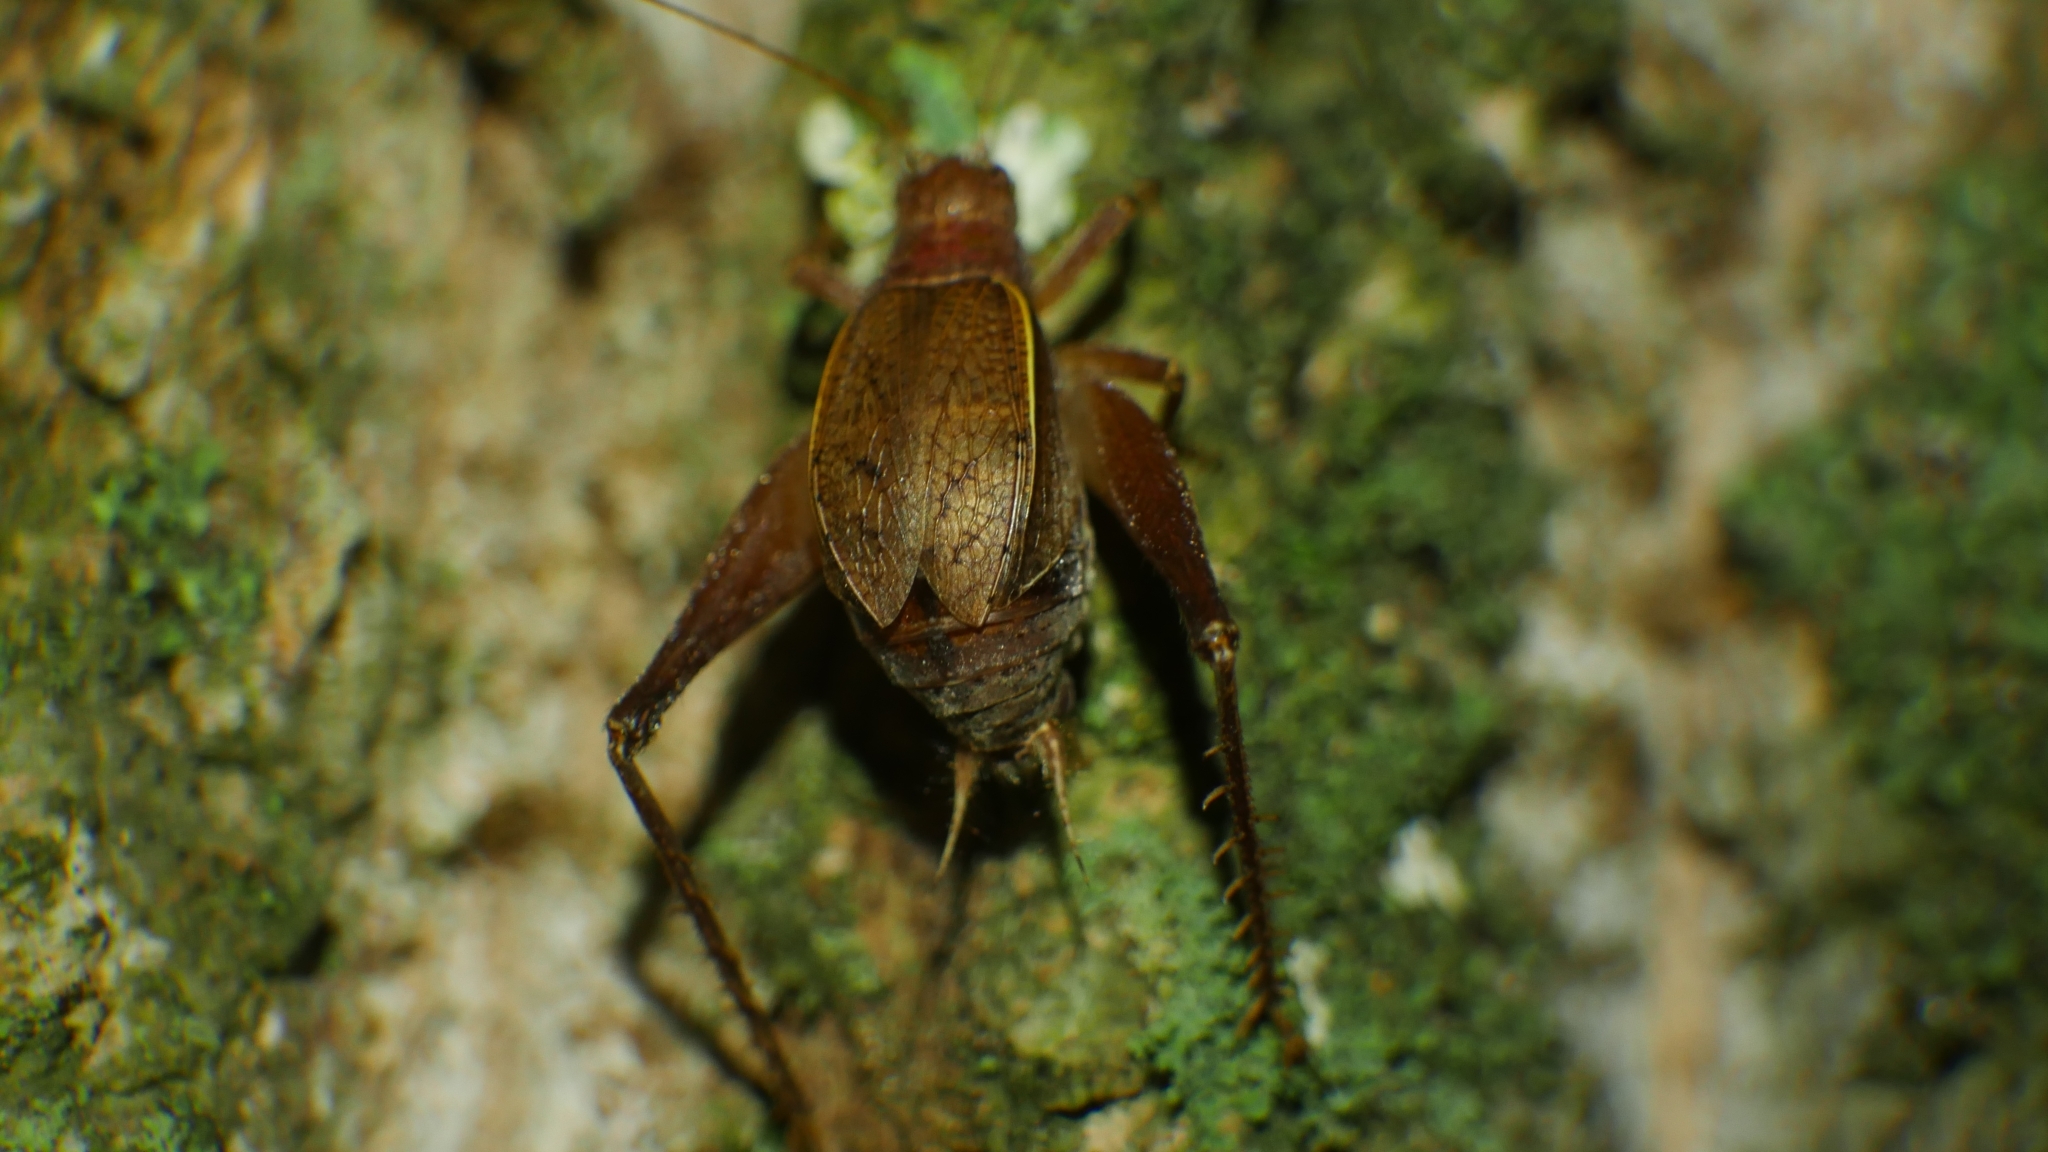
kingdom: Animalia
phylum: Arthropoda
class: Insecta
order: Orthoptera
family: Gryllidae
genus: Hapithus
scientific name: Hapithus agitator
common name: Restless bush cricket
